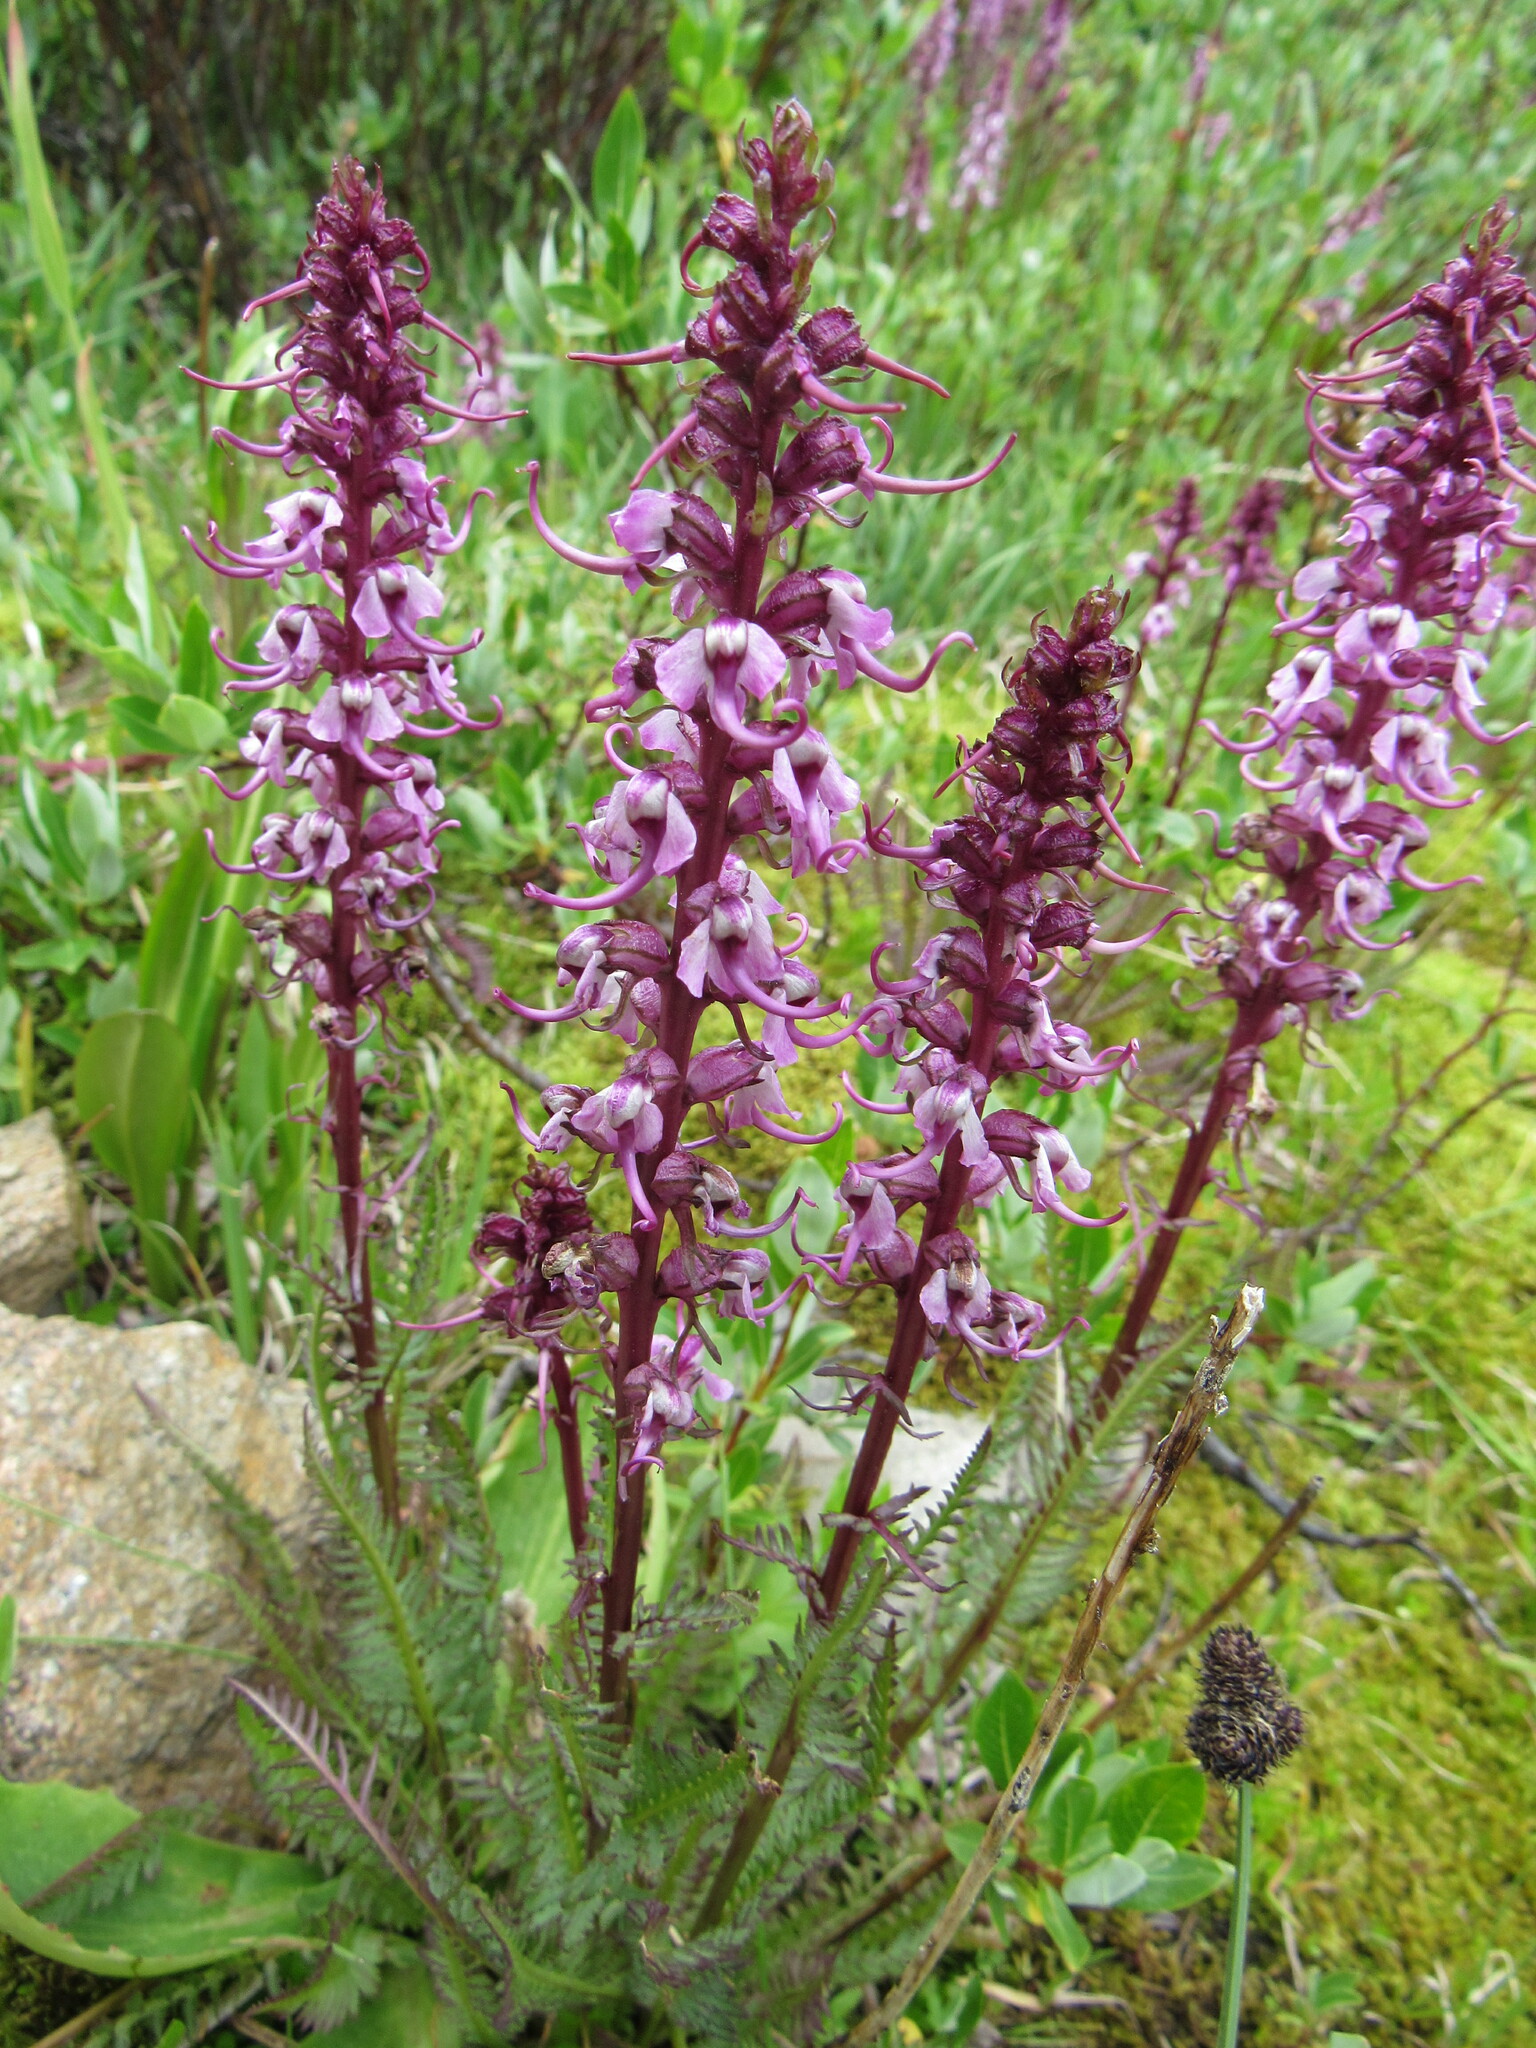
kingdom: Plantae
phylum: Tracheophyta
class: Magnoliopsida
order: Lamiales
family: Orobanchaceae
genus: Pedicularis
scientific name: Pedicularis groenlandica
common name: Elephant's-head
